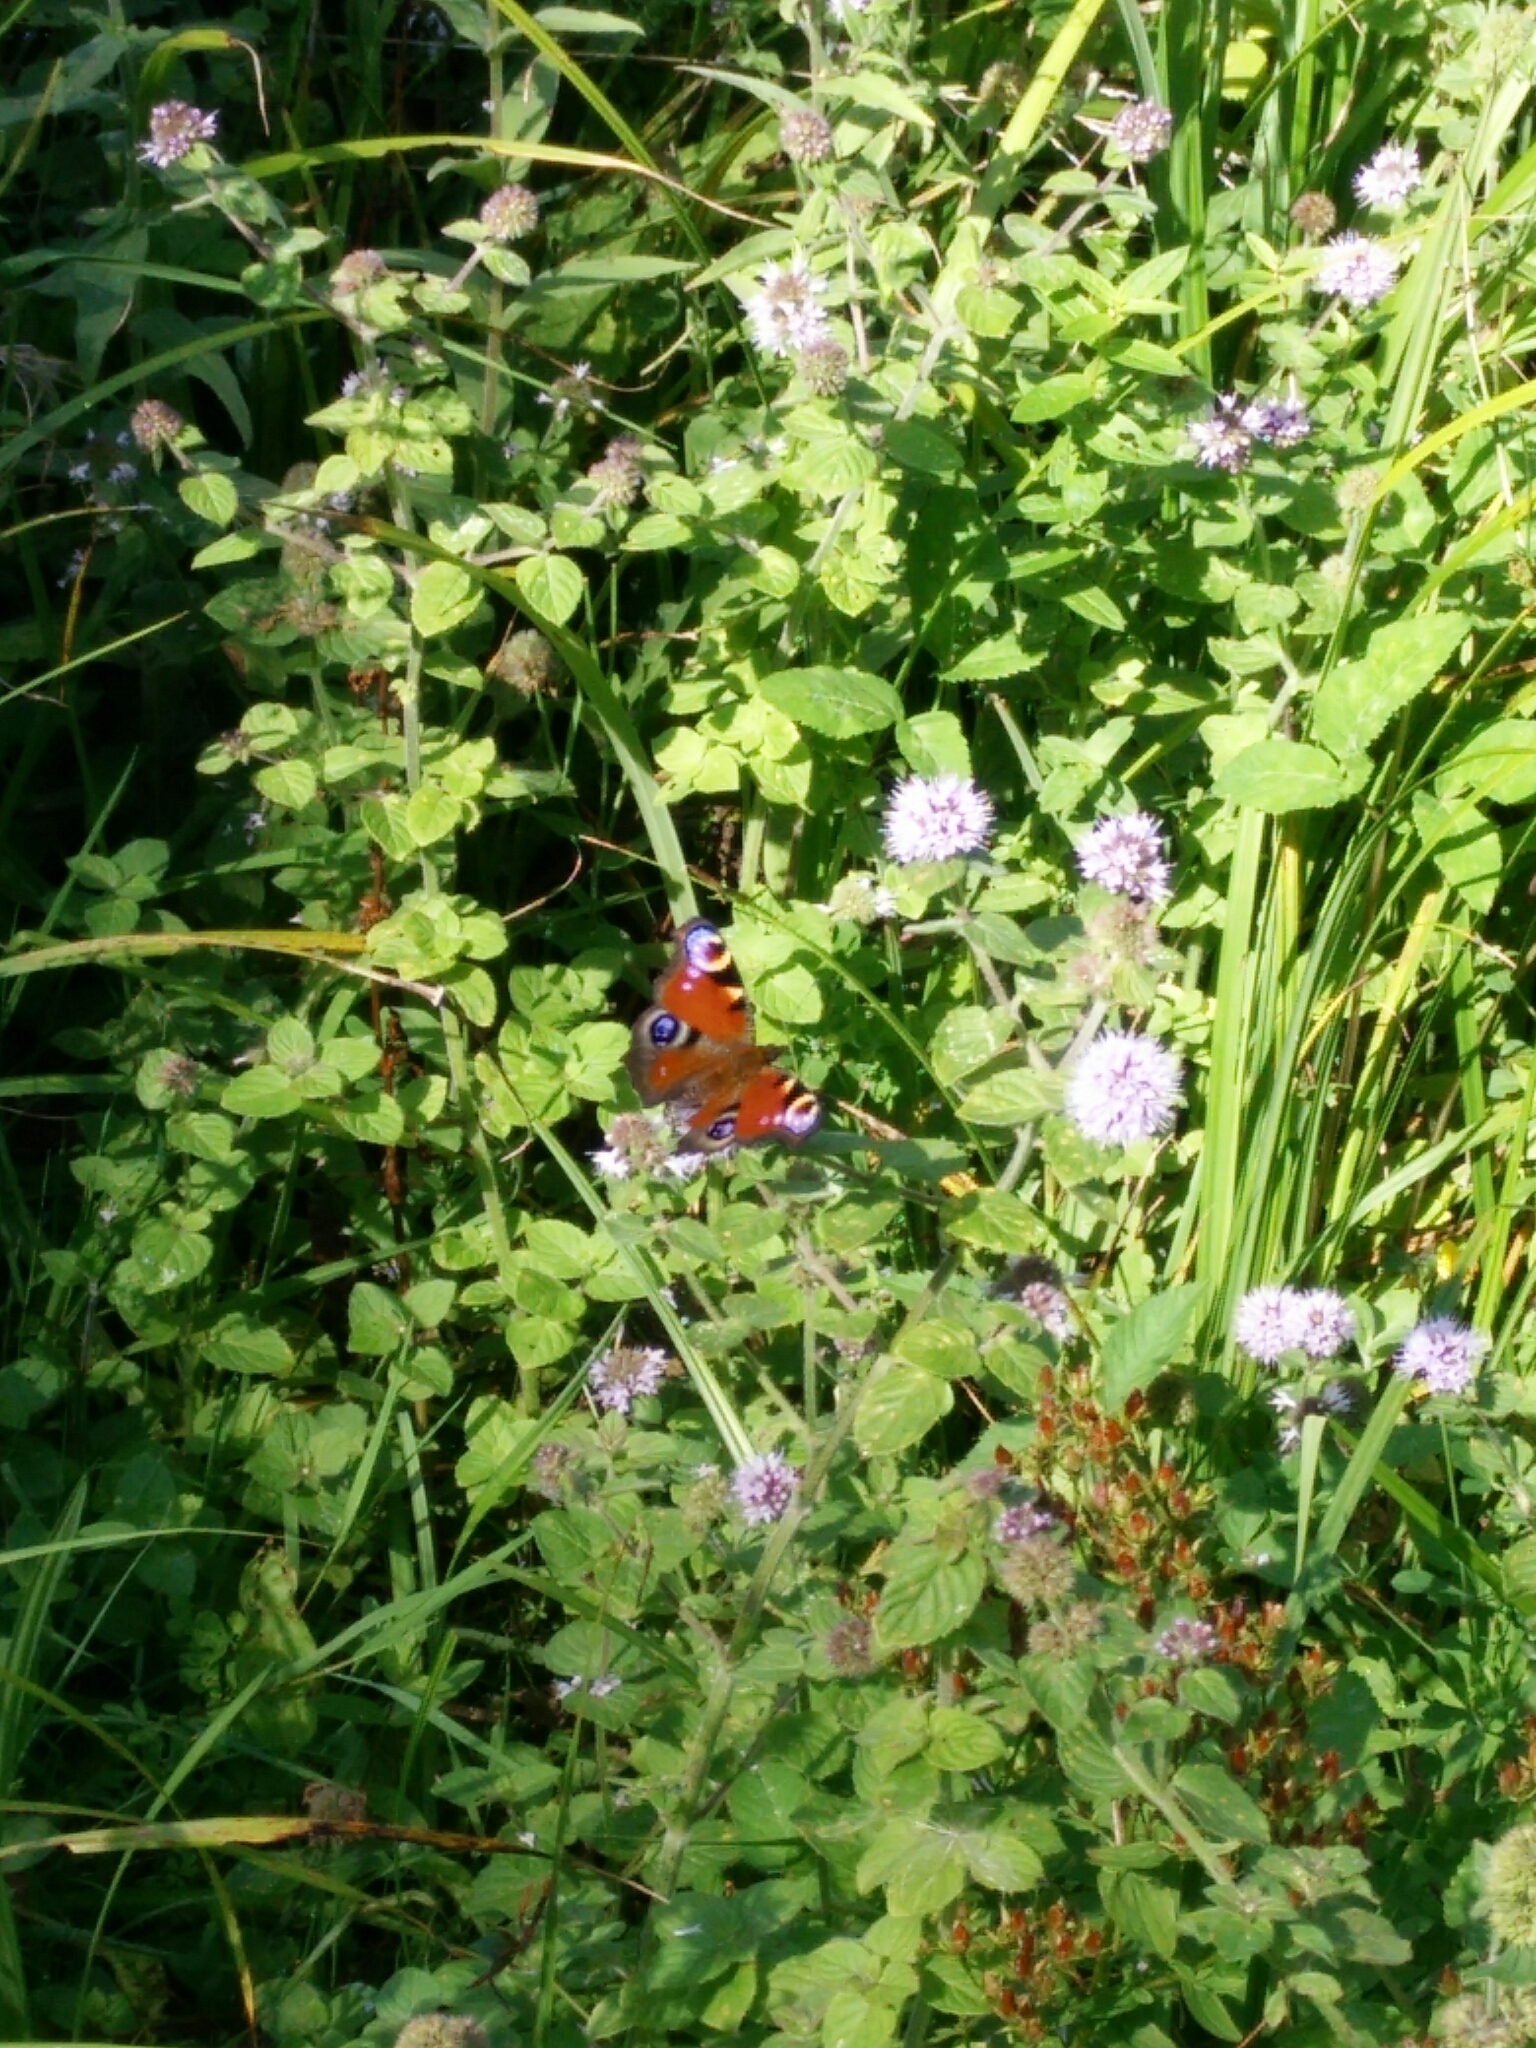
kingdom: Animalia
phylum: Arthropoda
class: Insecta
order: Lepidoptera
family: Nymphalidae
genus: Aglais
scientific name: Aglais io
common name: Peacock
